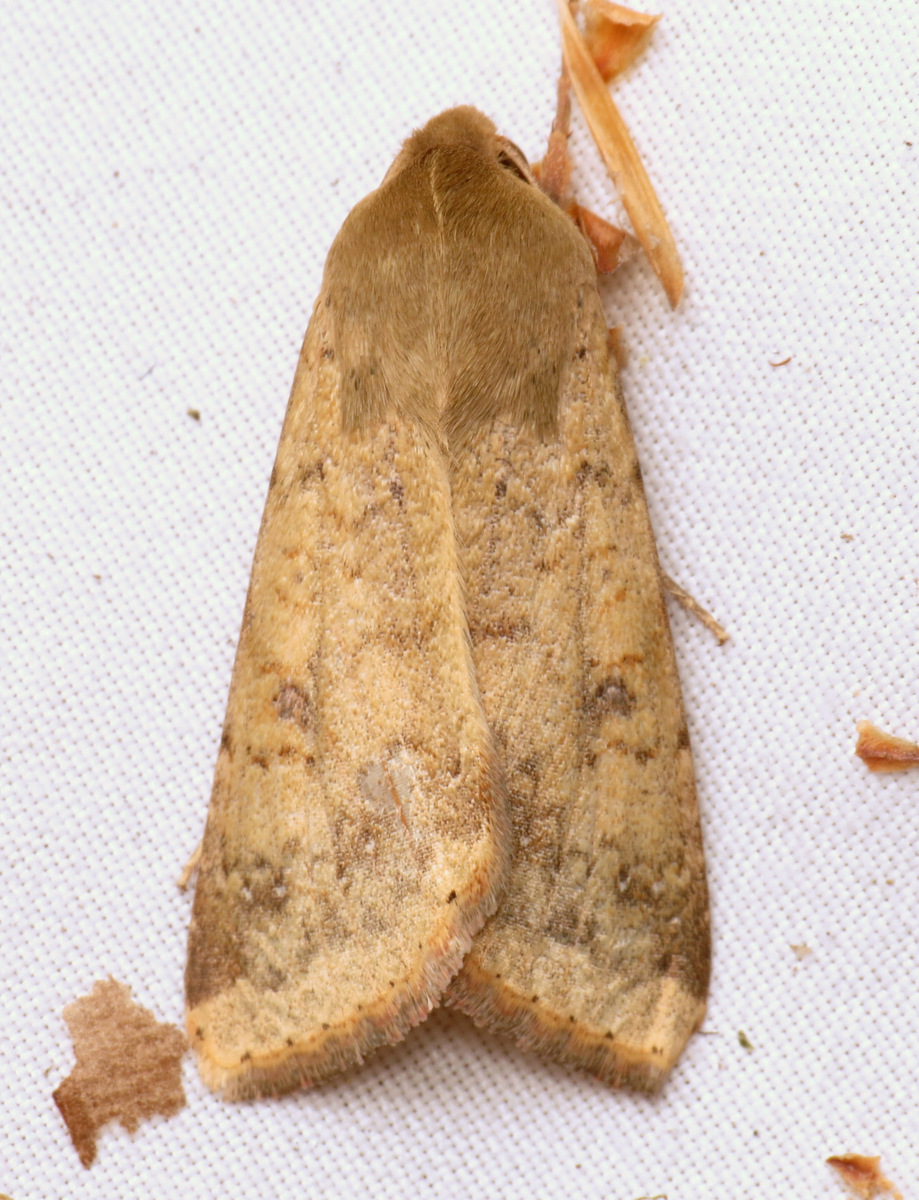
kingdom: Animalia
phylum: Arthropoda
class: Insecta
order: Lepidoptera
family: Noctuidae
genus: Helicoverpa
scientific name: Helicoverpa zea
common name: Bollworm
